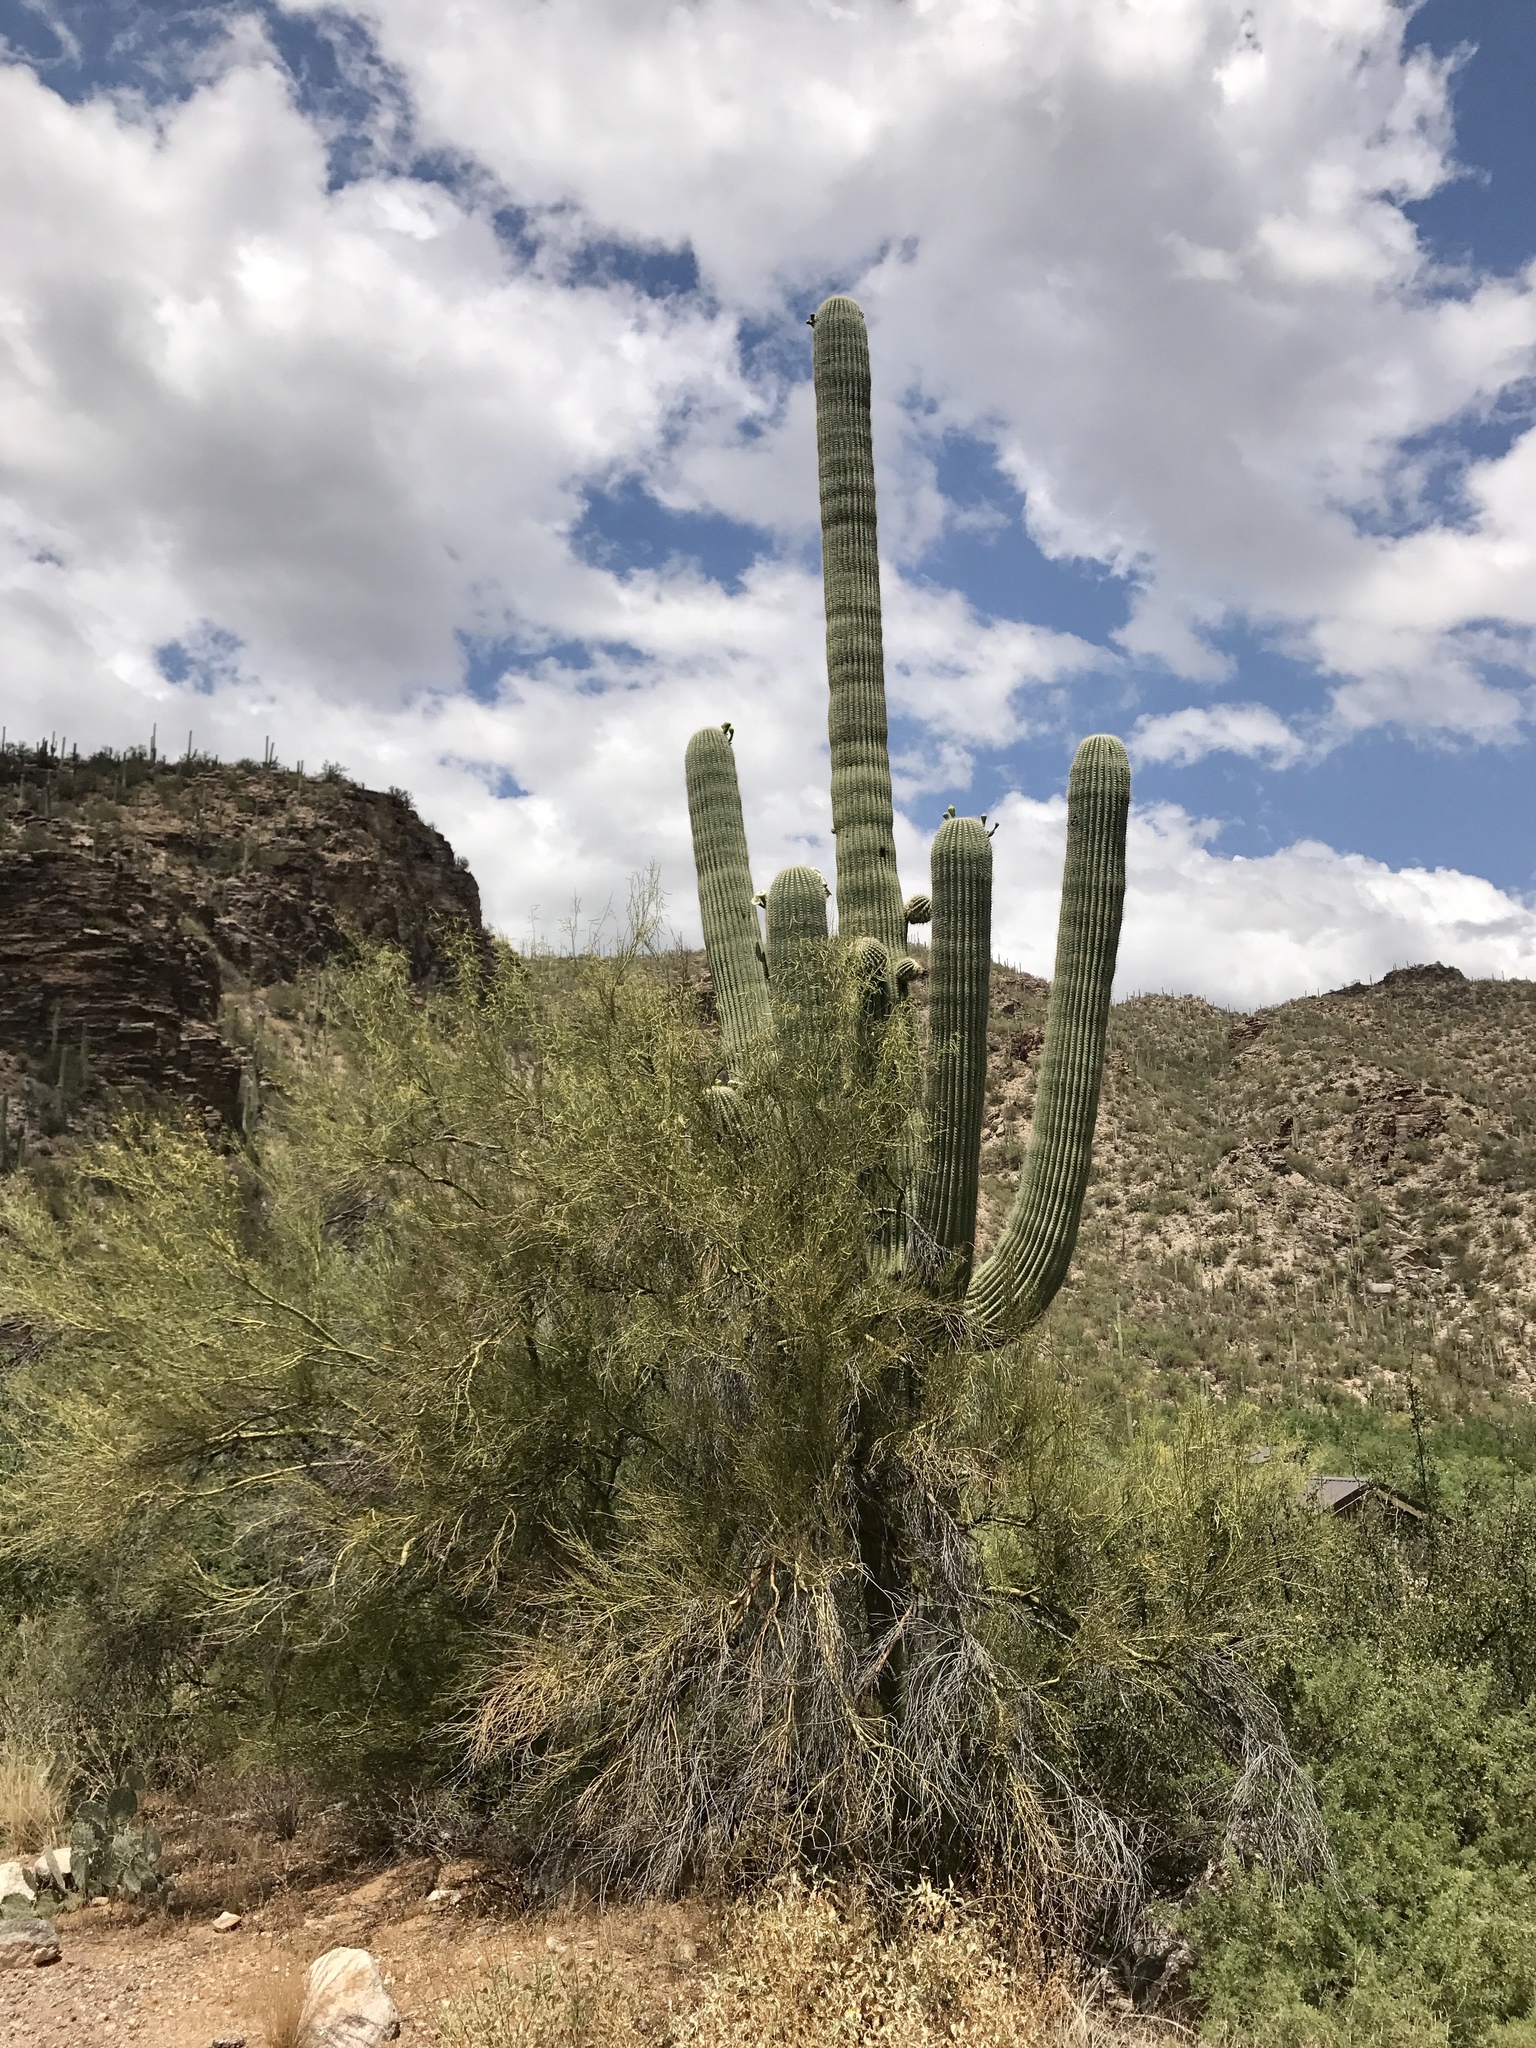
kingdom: Plantae
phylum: Tracheophyta
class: Magnoliopsida
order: Caryophyllales
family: Cactaceae
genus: Carnegiea
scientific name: Carnegiea gigantea
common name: Saguaro
